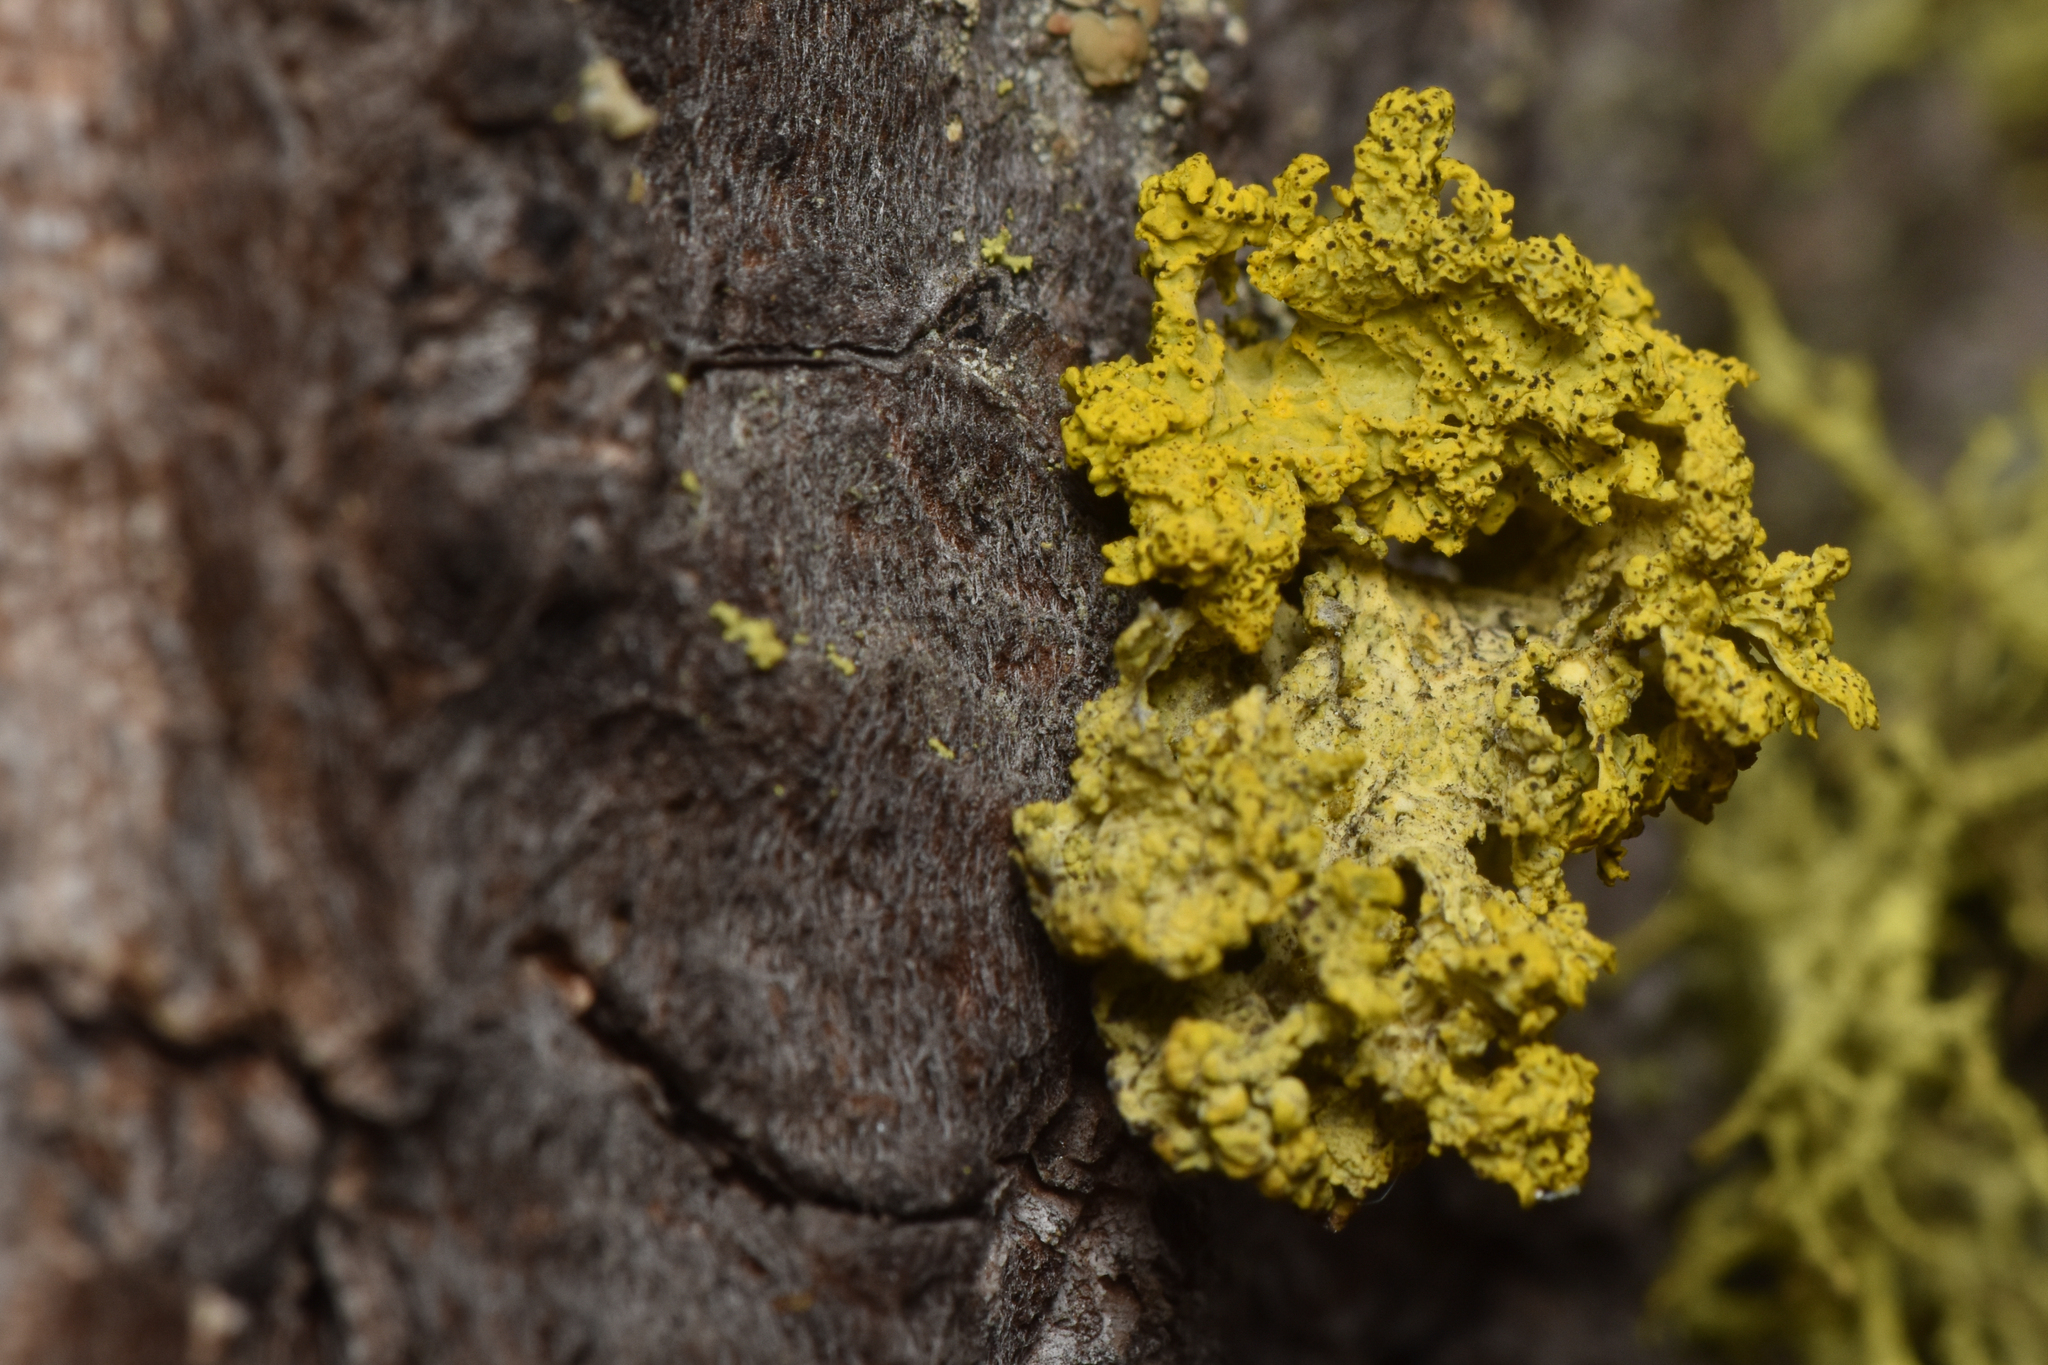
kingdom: Fungi
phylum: Ascomycota
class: Lecanoromycetes
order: Lecanorales
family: Parmeliaceae
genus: Vulpicida
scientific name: Vulpicida canadensis
